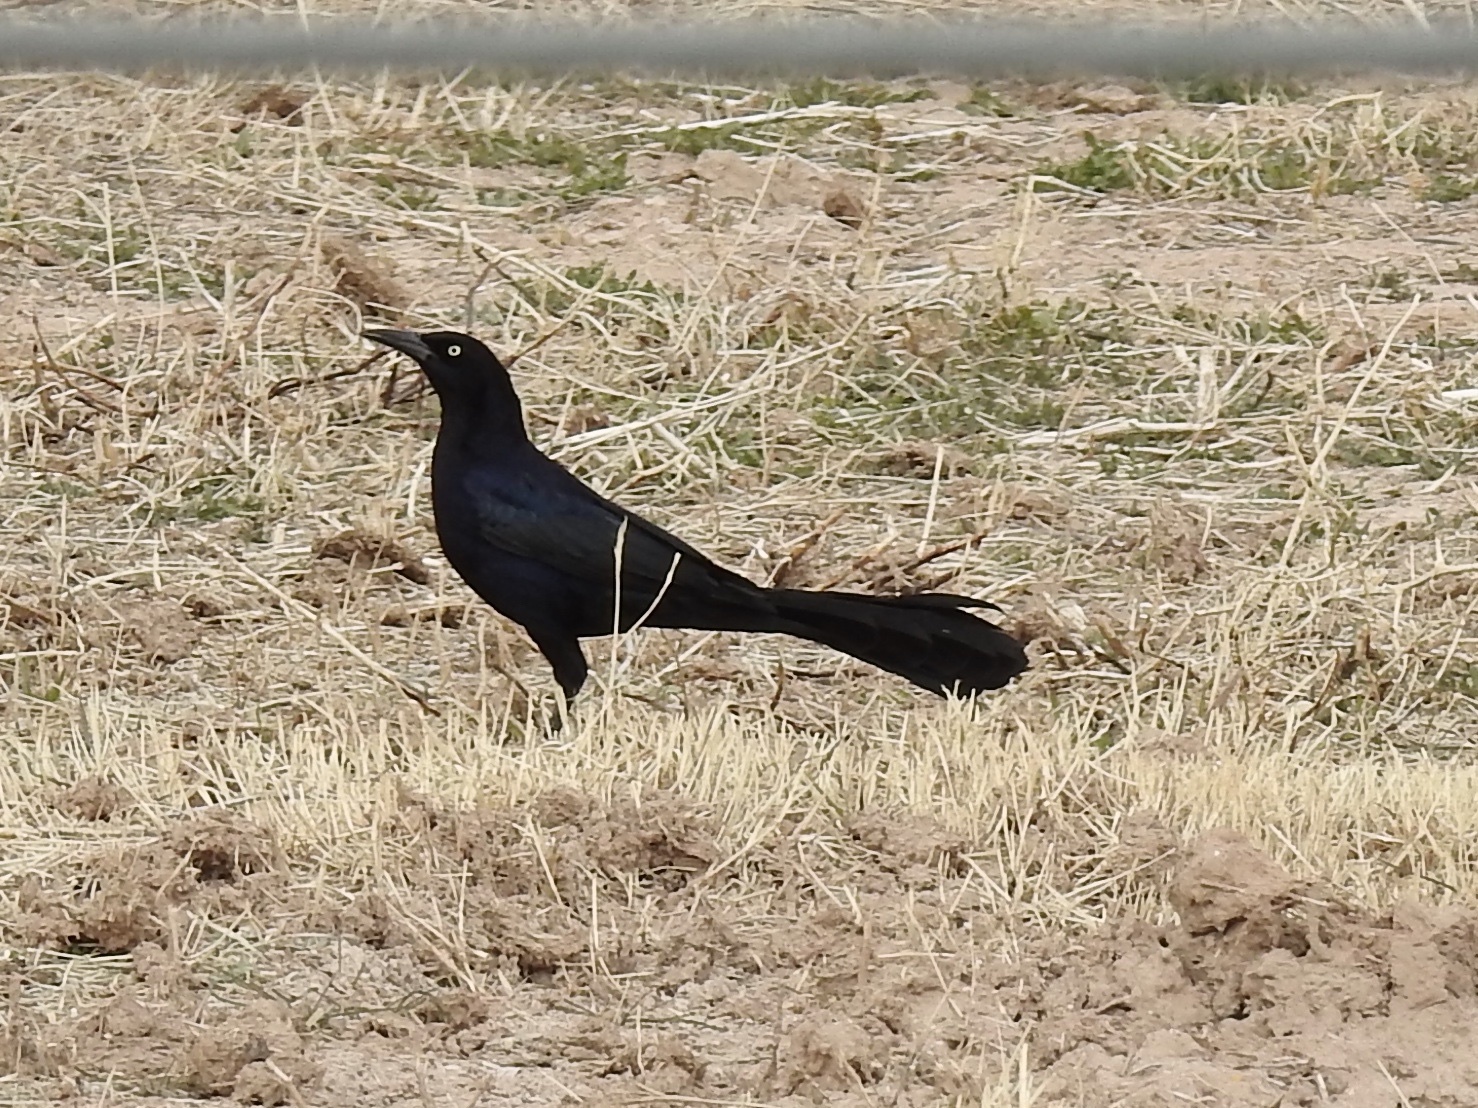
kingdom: Animalia
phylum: Chordata
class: Aves
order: Passeriformes
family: Icteridae
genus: Quiscalus
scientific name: Quiscalus mexicanus
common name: Great-tailed grackle
